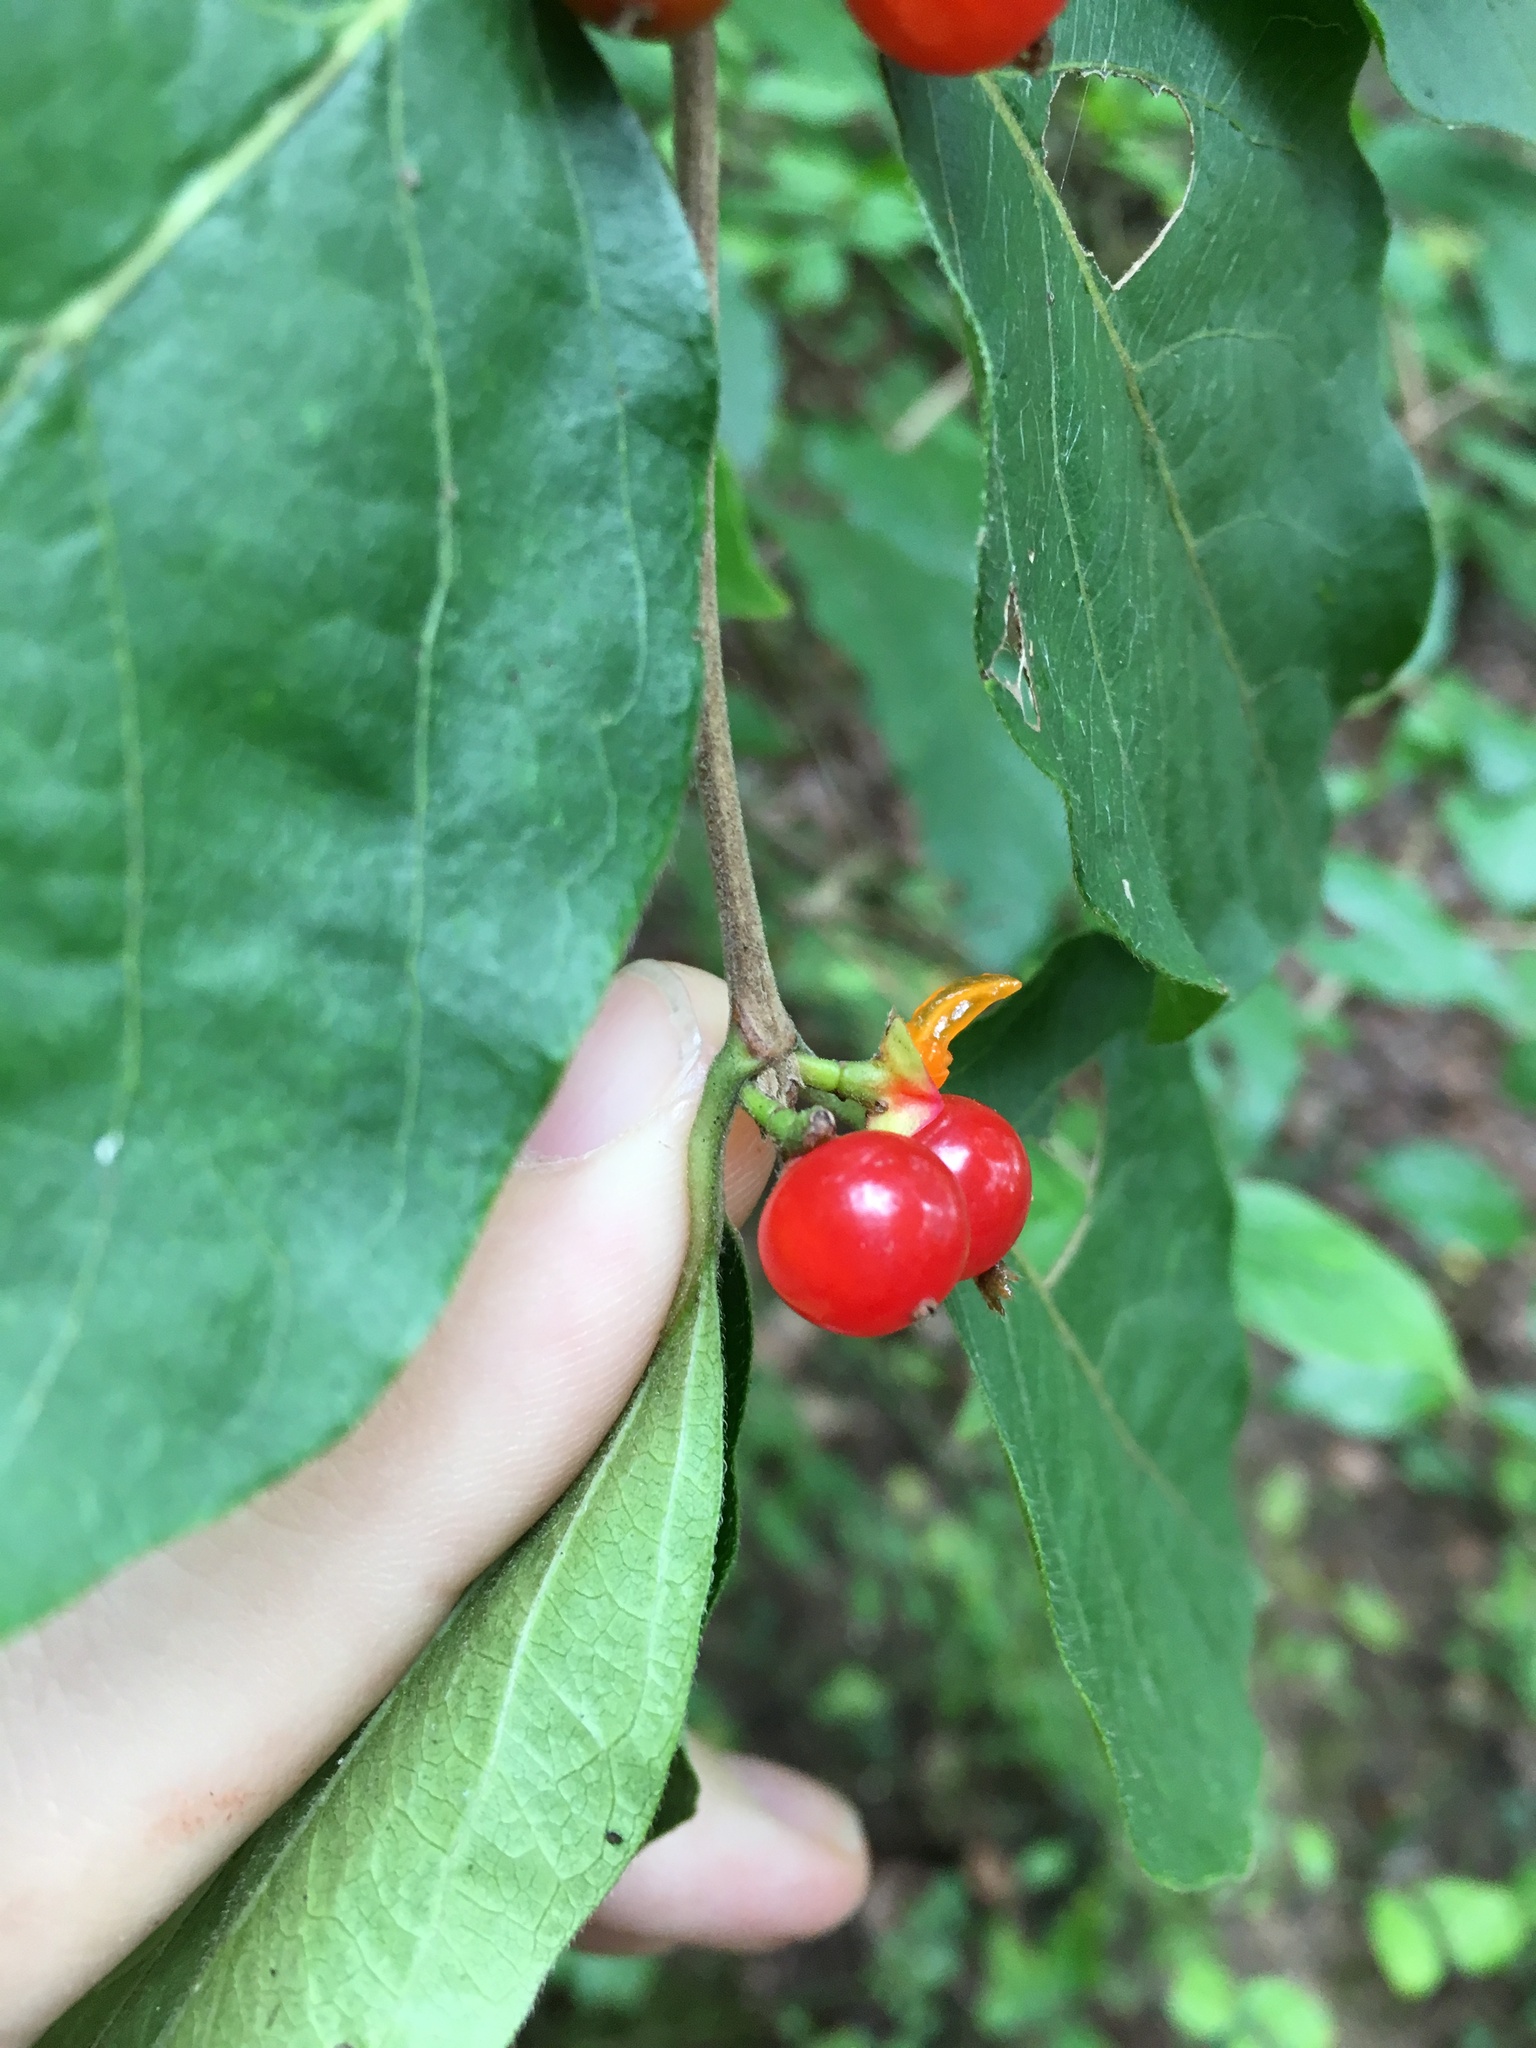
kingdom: Plantae
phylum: Tracheophyta
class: Magnoliopsida
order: Dipsacales
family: Caprifoliaceae
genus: Lonicera
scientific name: Lonicera maackii
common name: Amur honeysuckle
